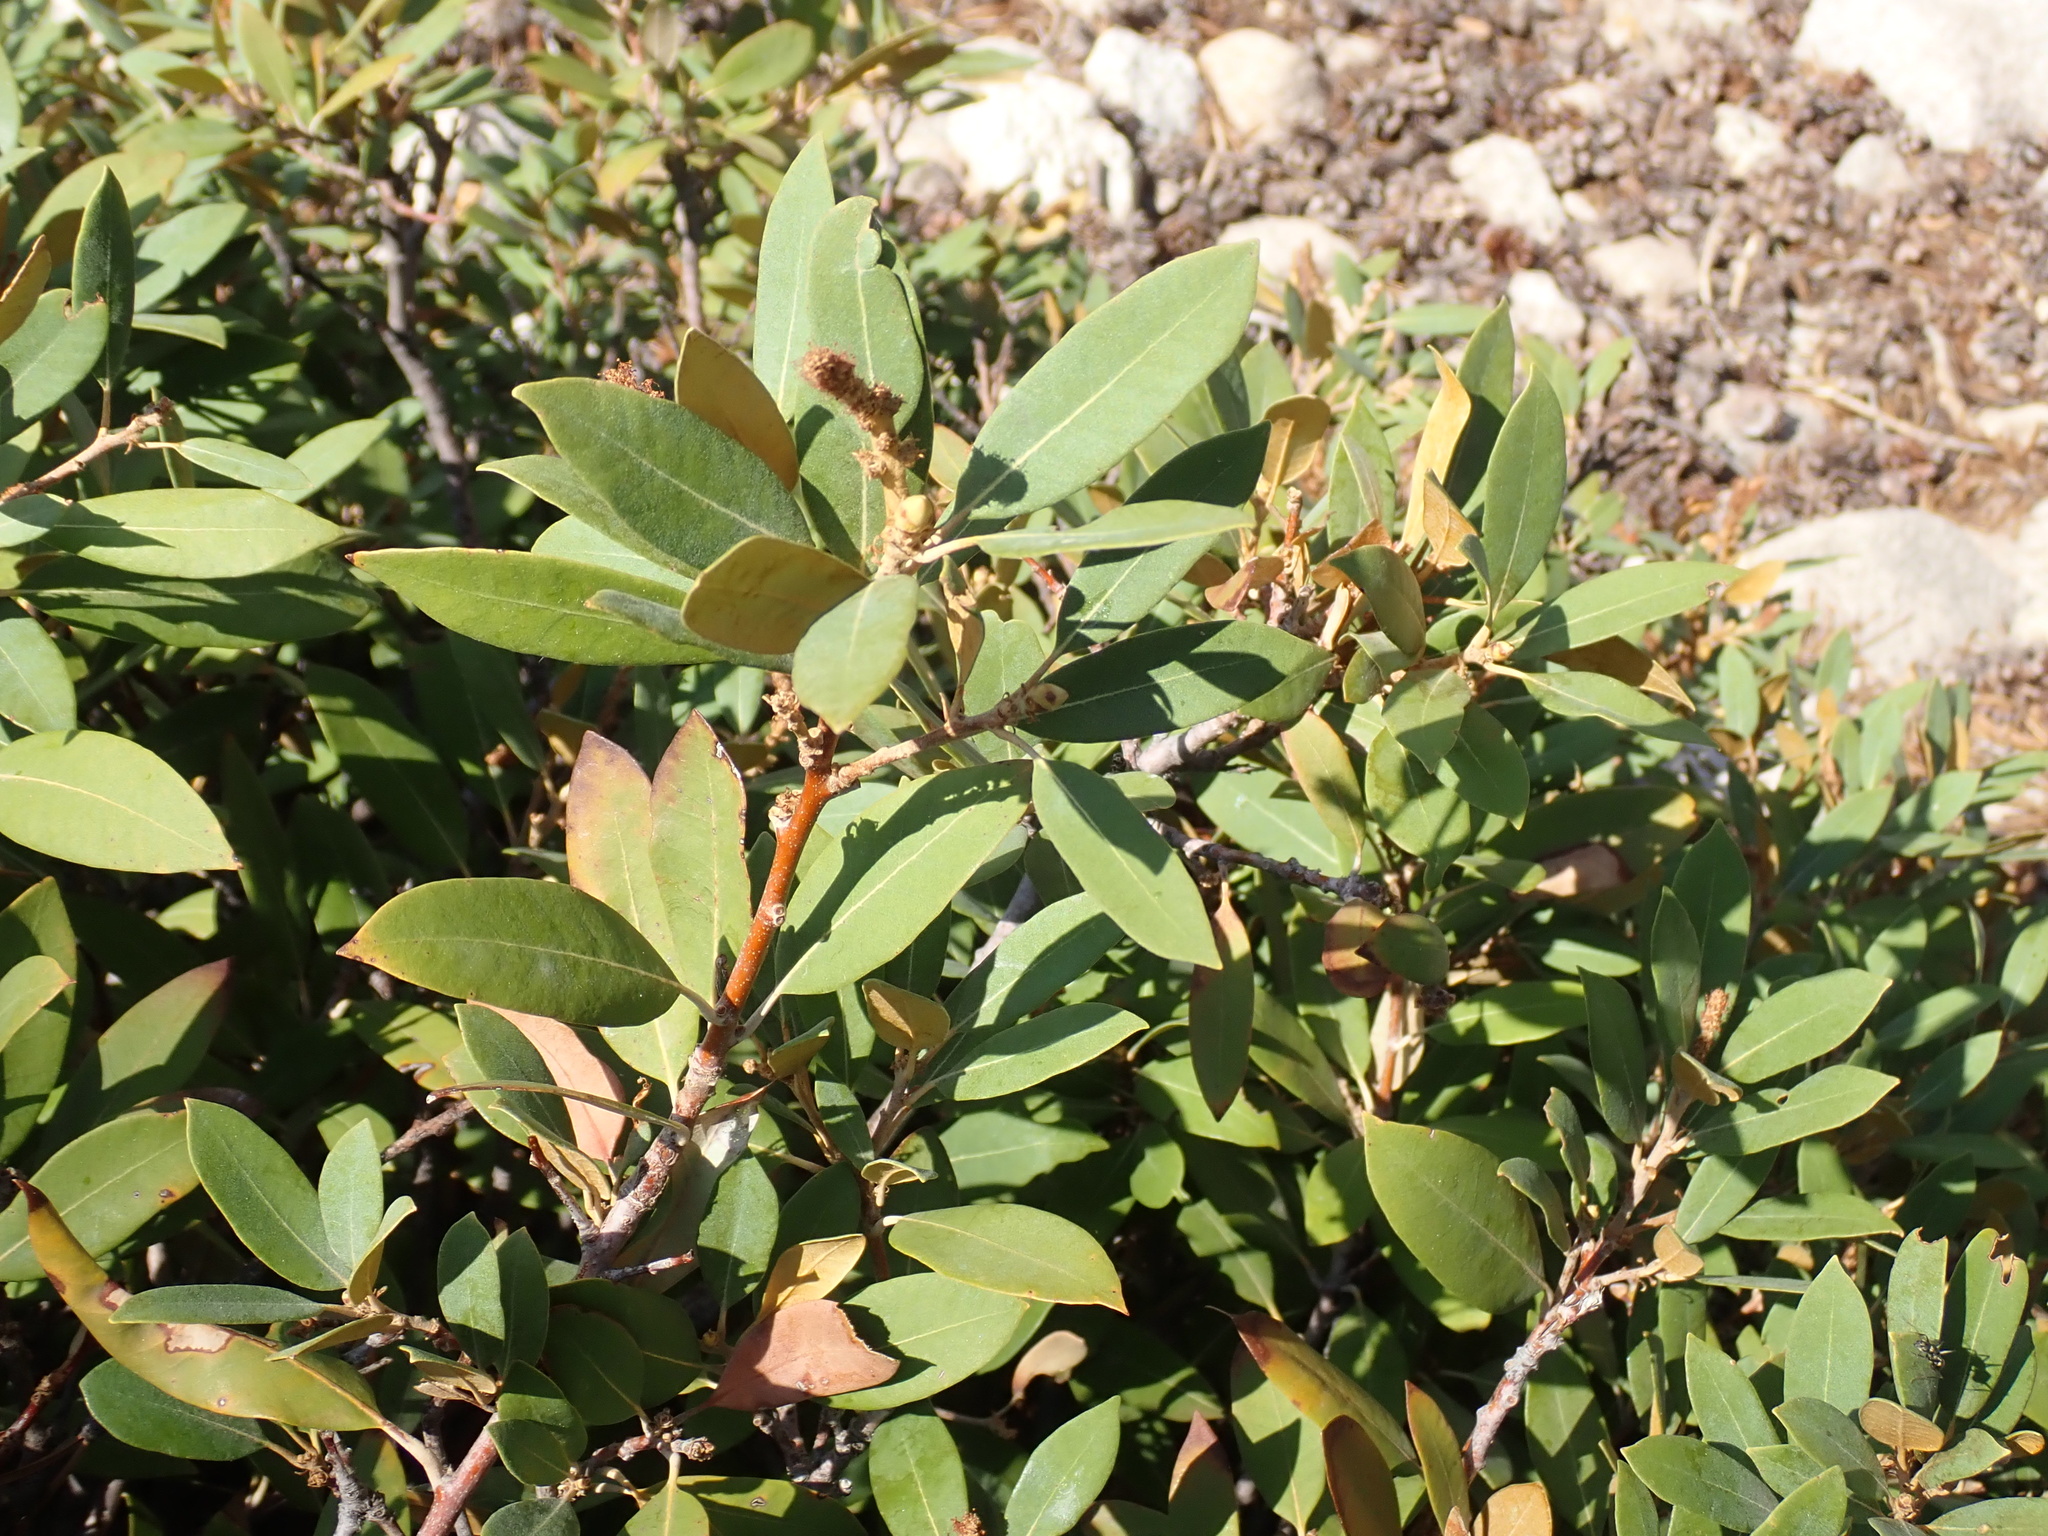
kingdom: Plantae
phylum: Tracheophyta
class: Magnoliopsida
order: Fagales
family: Fagaceae
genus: Chrysolepis
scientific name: Chrysolepis sempervirens
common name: Bush chinquapin
